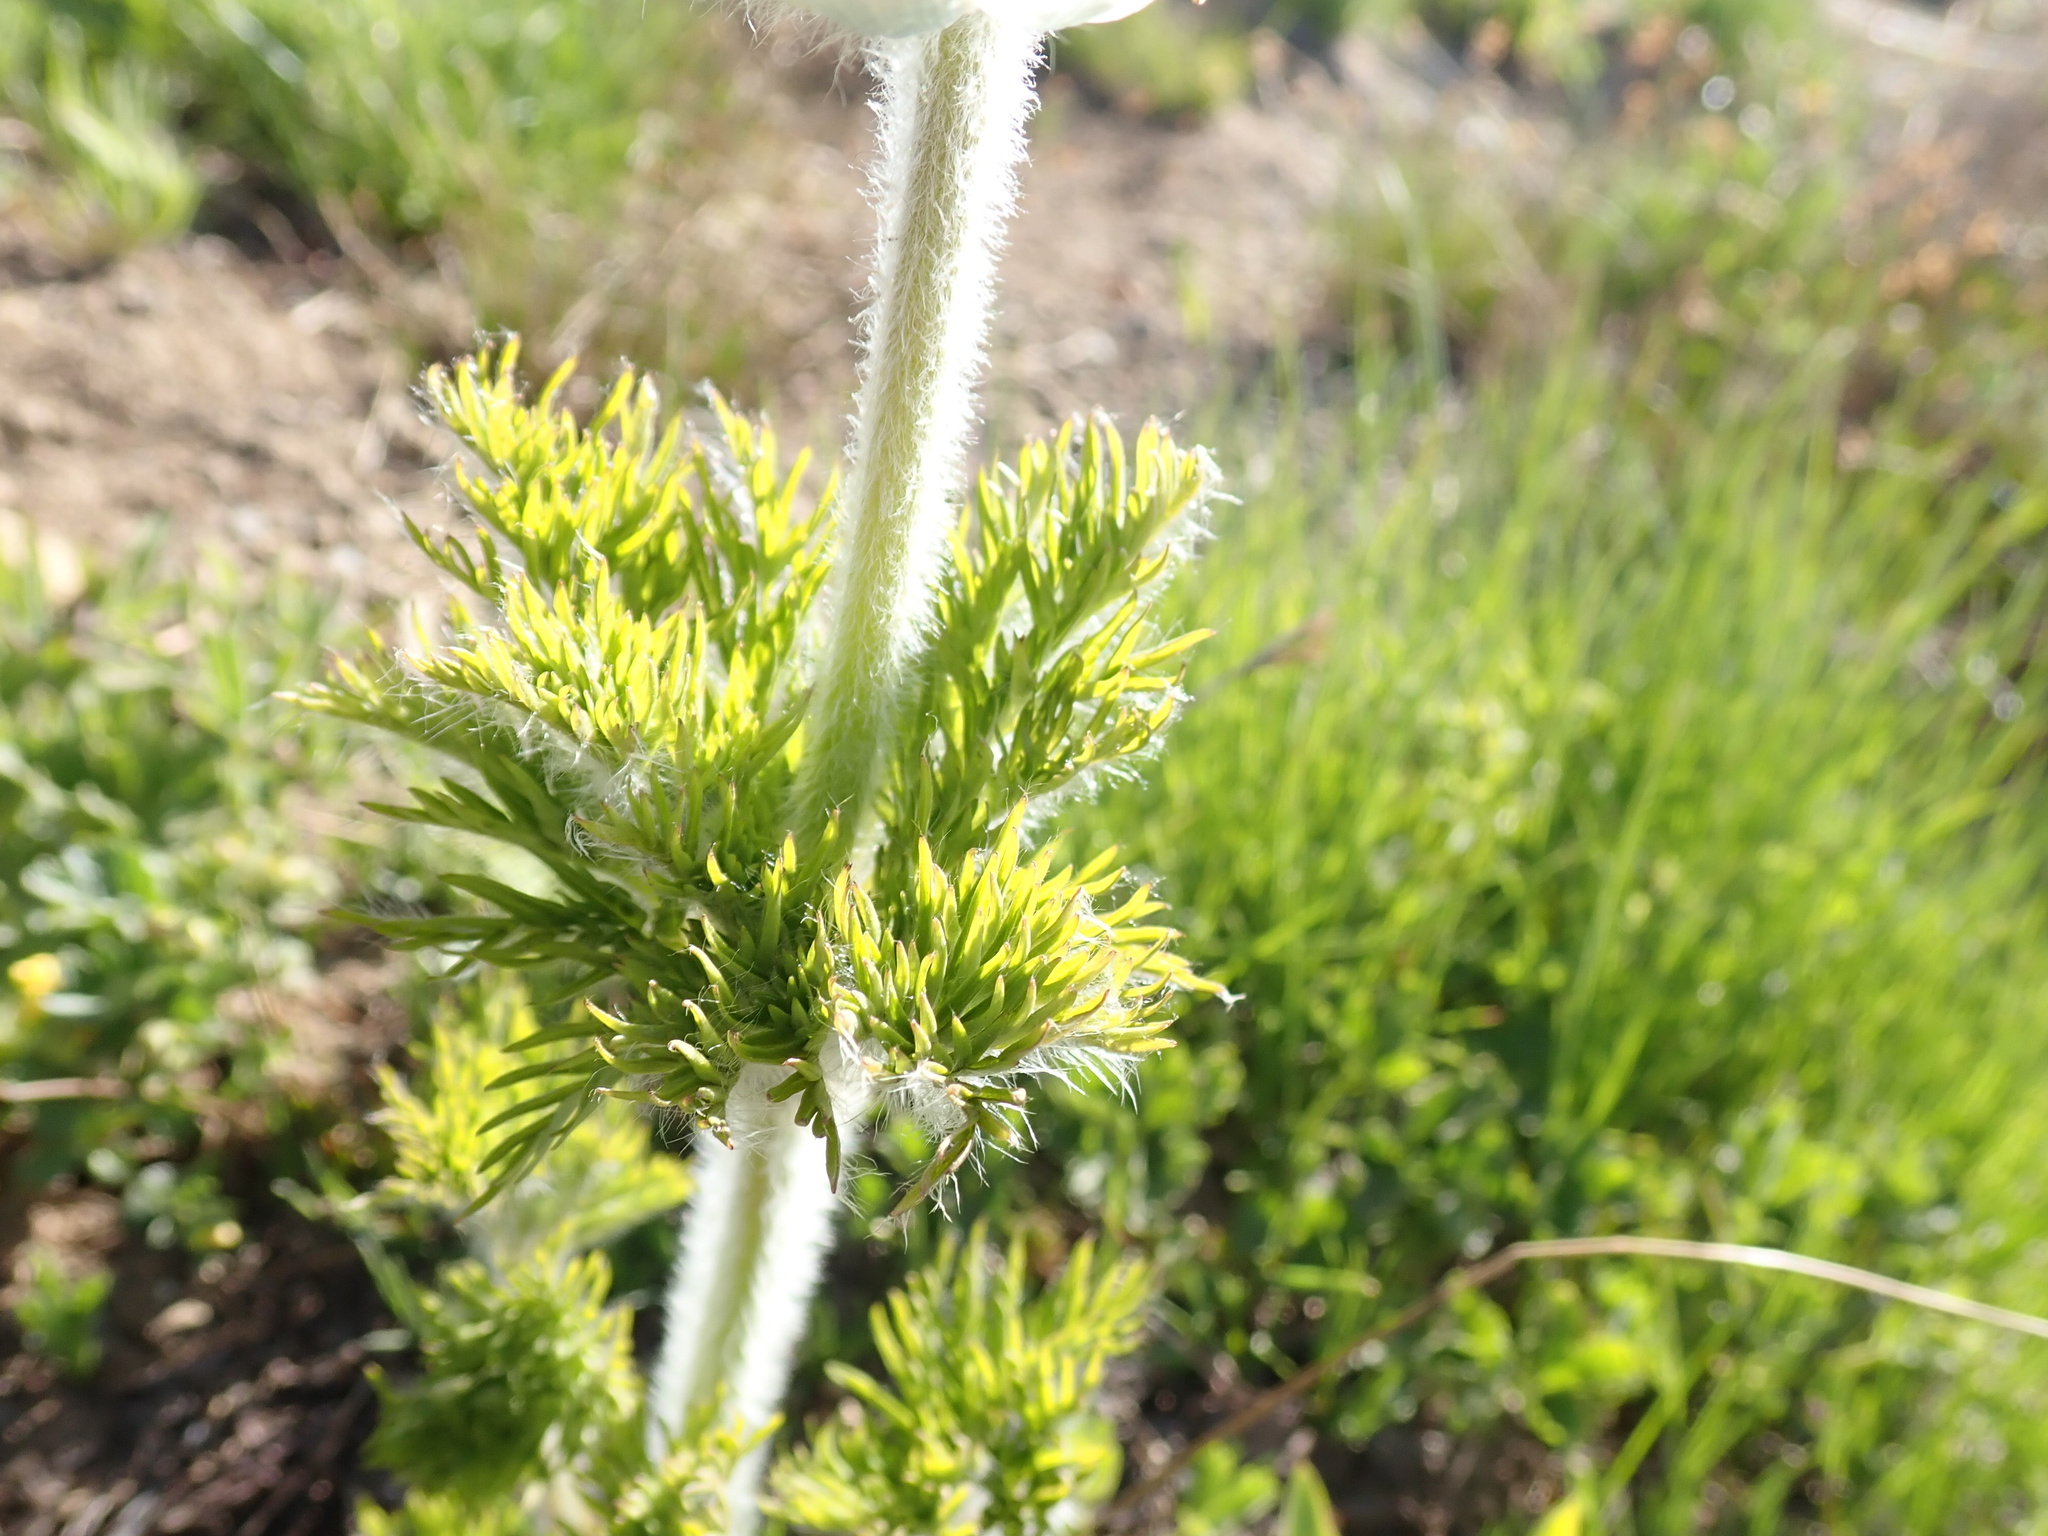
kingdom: Plantae
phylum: Tracheophyta
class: Magnoliopsida
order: Ranunculales
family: Ranunculaceae
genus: Pulsatilla
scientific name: Pulsatilla occidentalis
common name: Mountain pasqueflower
